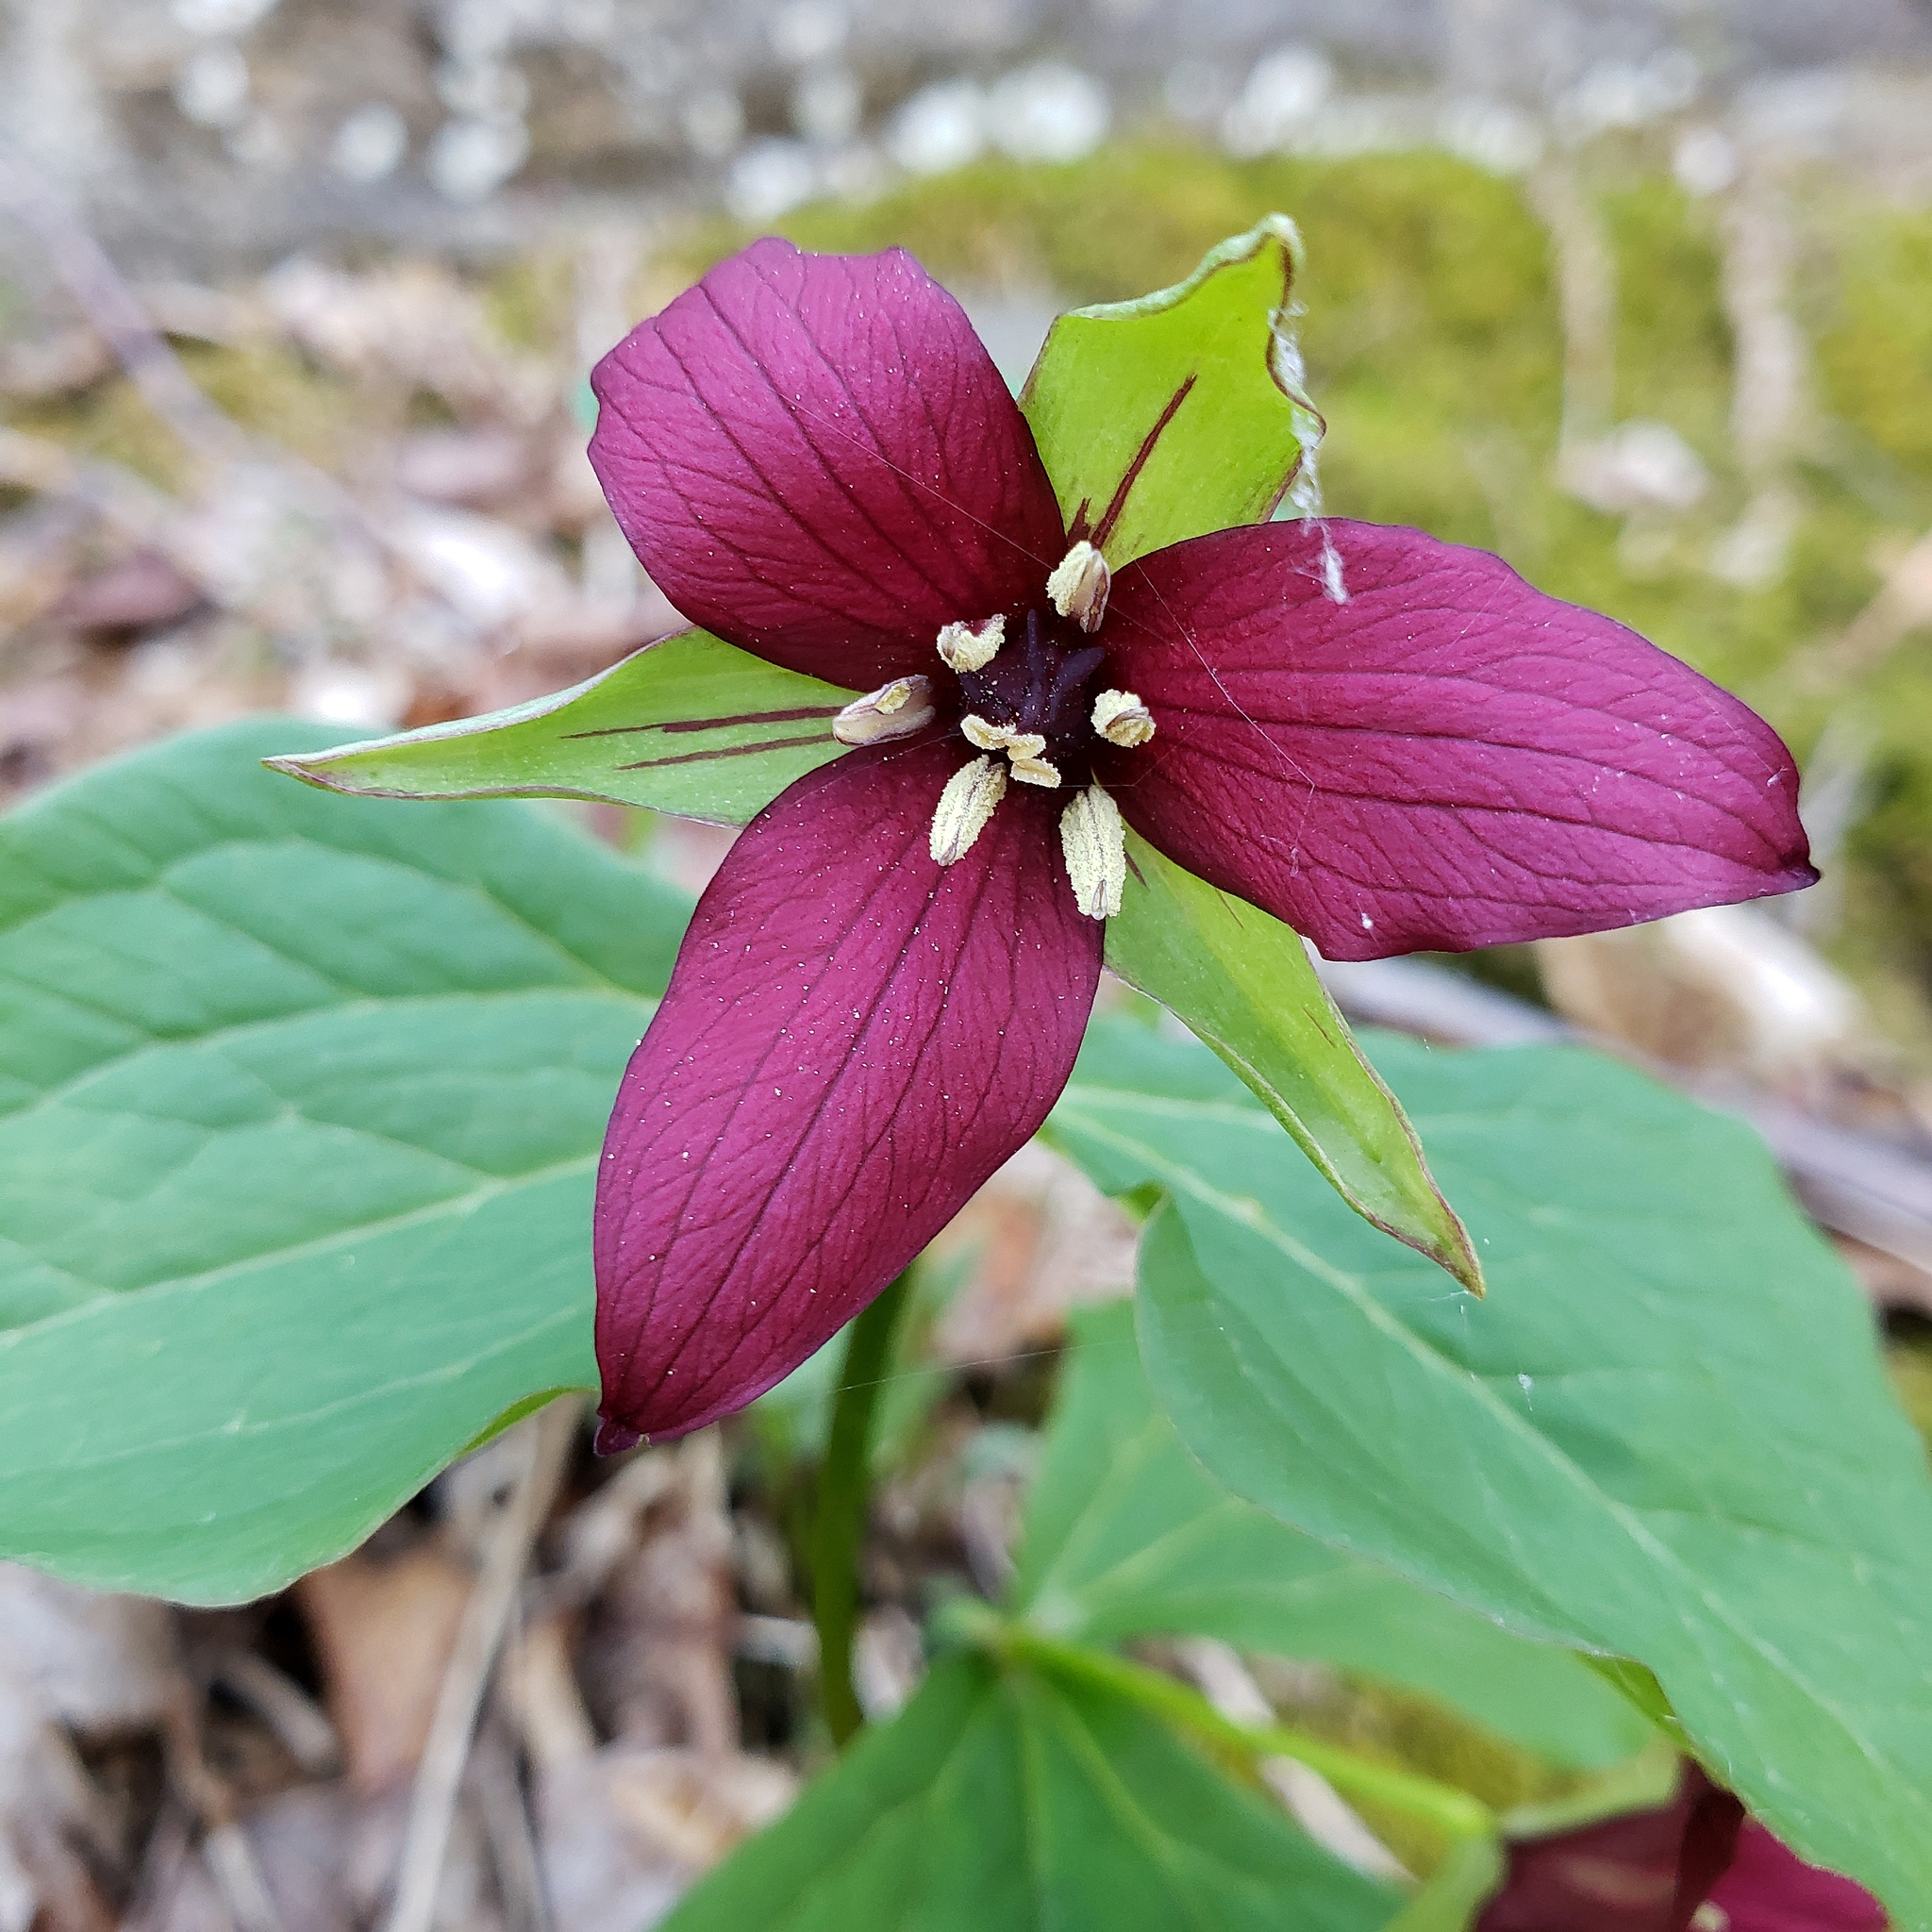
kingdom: Plantae
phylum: Tracheophyta
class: Liliopsida
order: Liliales
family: Melanthiaceae
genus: Trillium
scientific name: Trillium erectum
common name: Purple trillium
